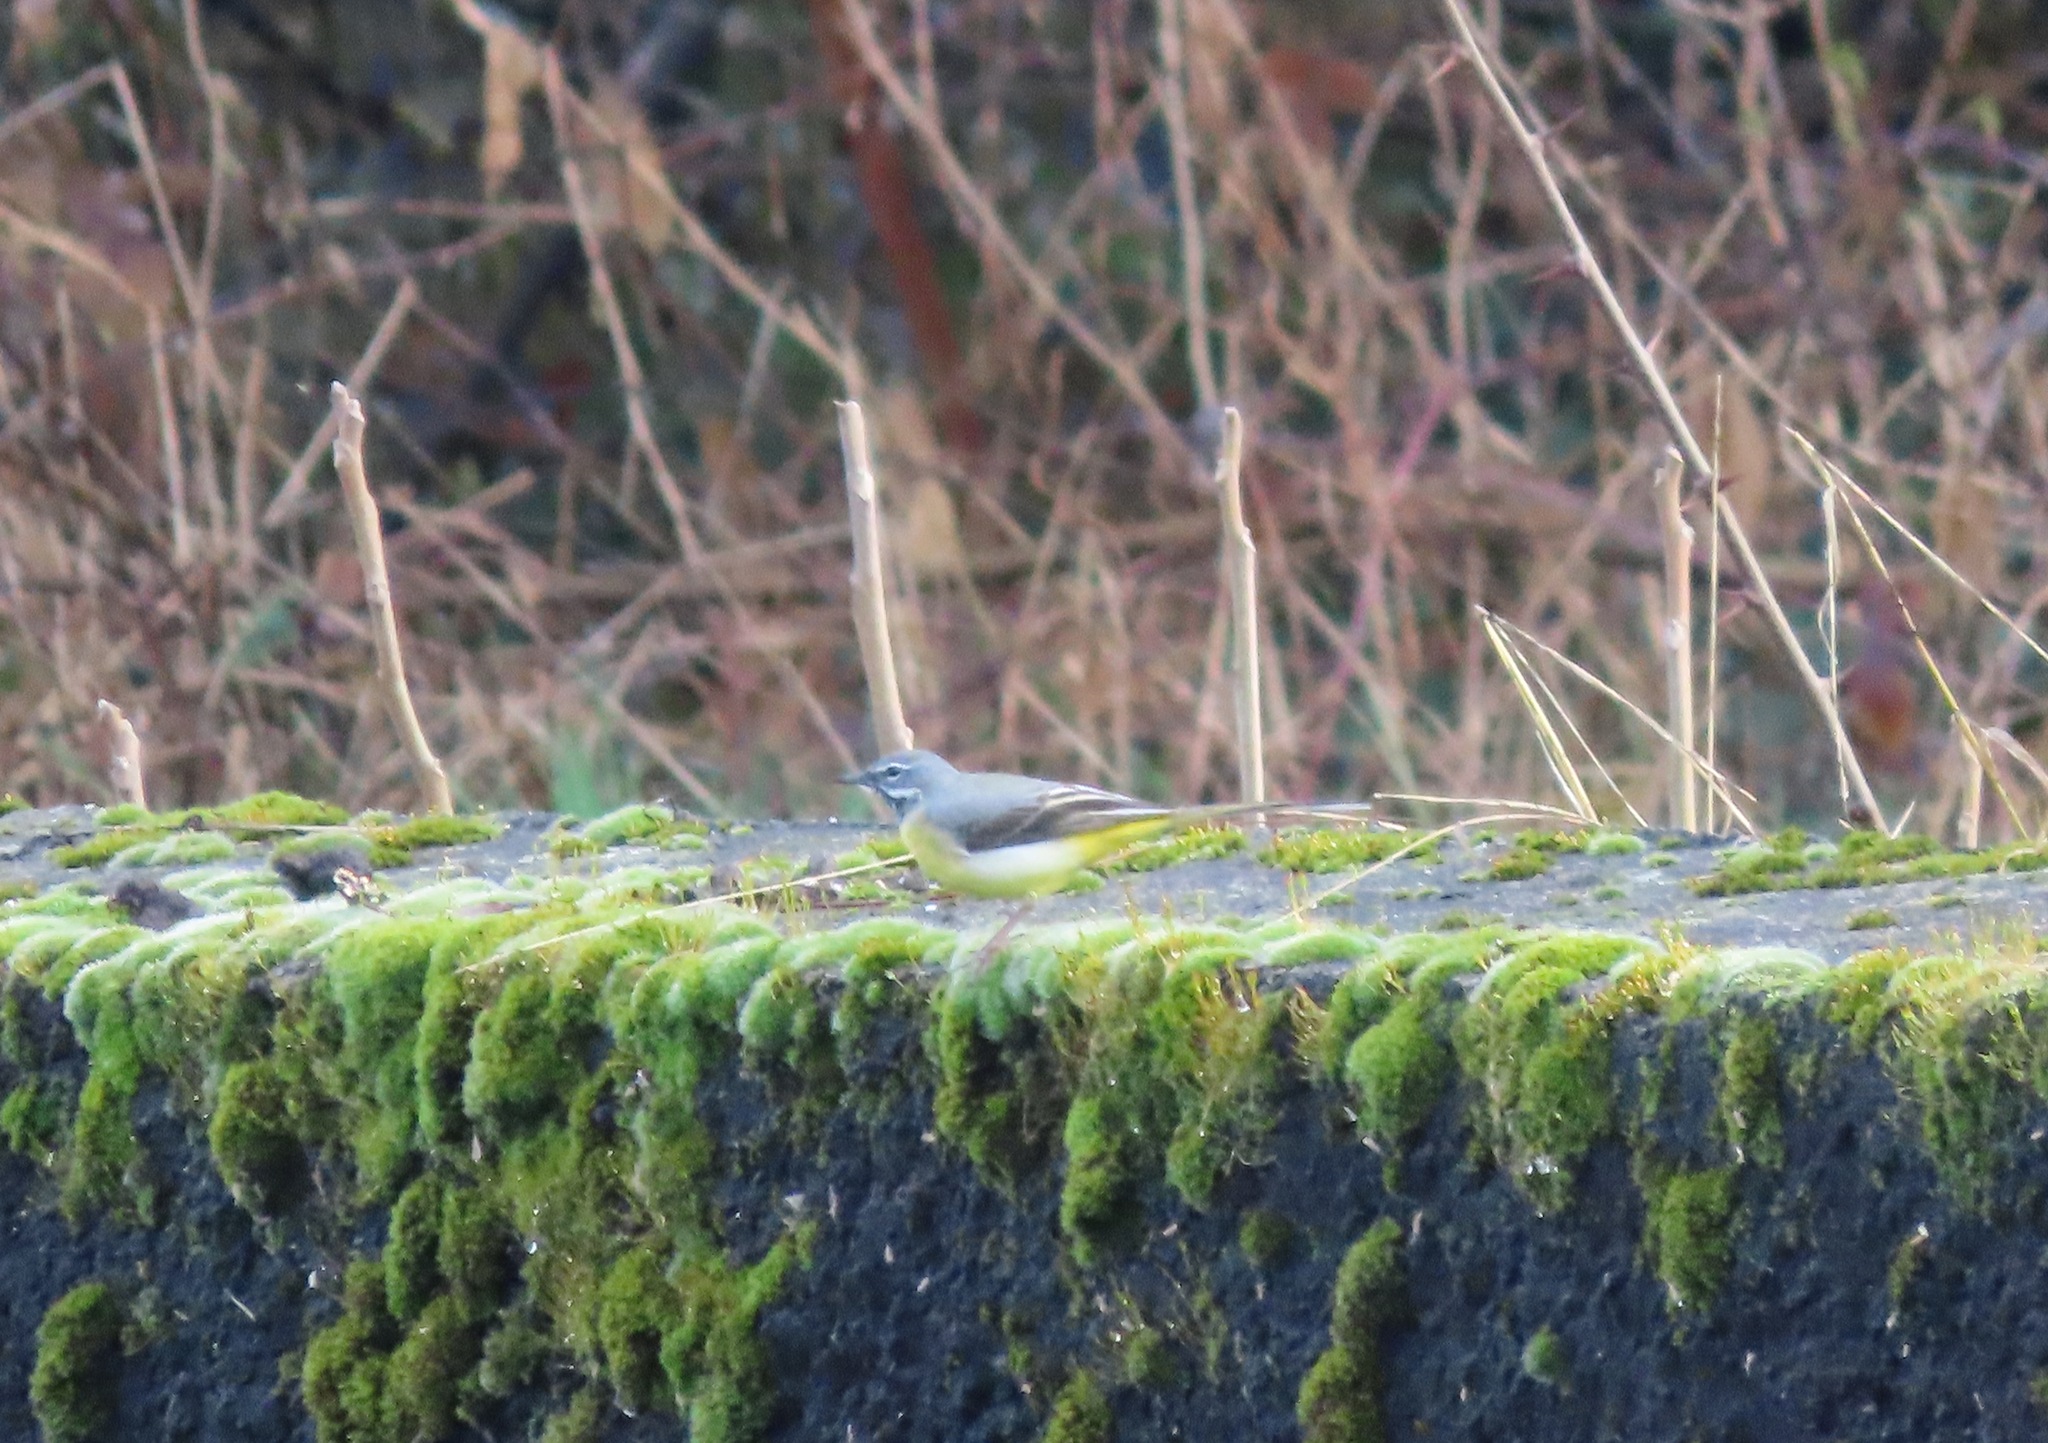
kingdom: Animalia
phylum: Chordata
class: Aves
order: Passeriformes
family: Motacillidae
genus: Motacilla
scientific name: Motacilla cinerea
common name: Grey wagtail
